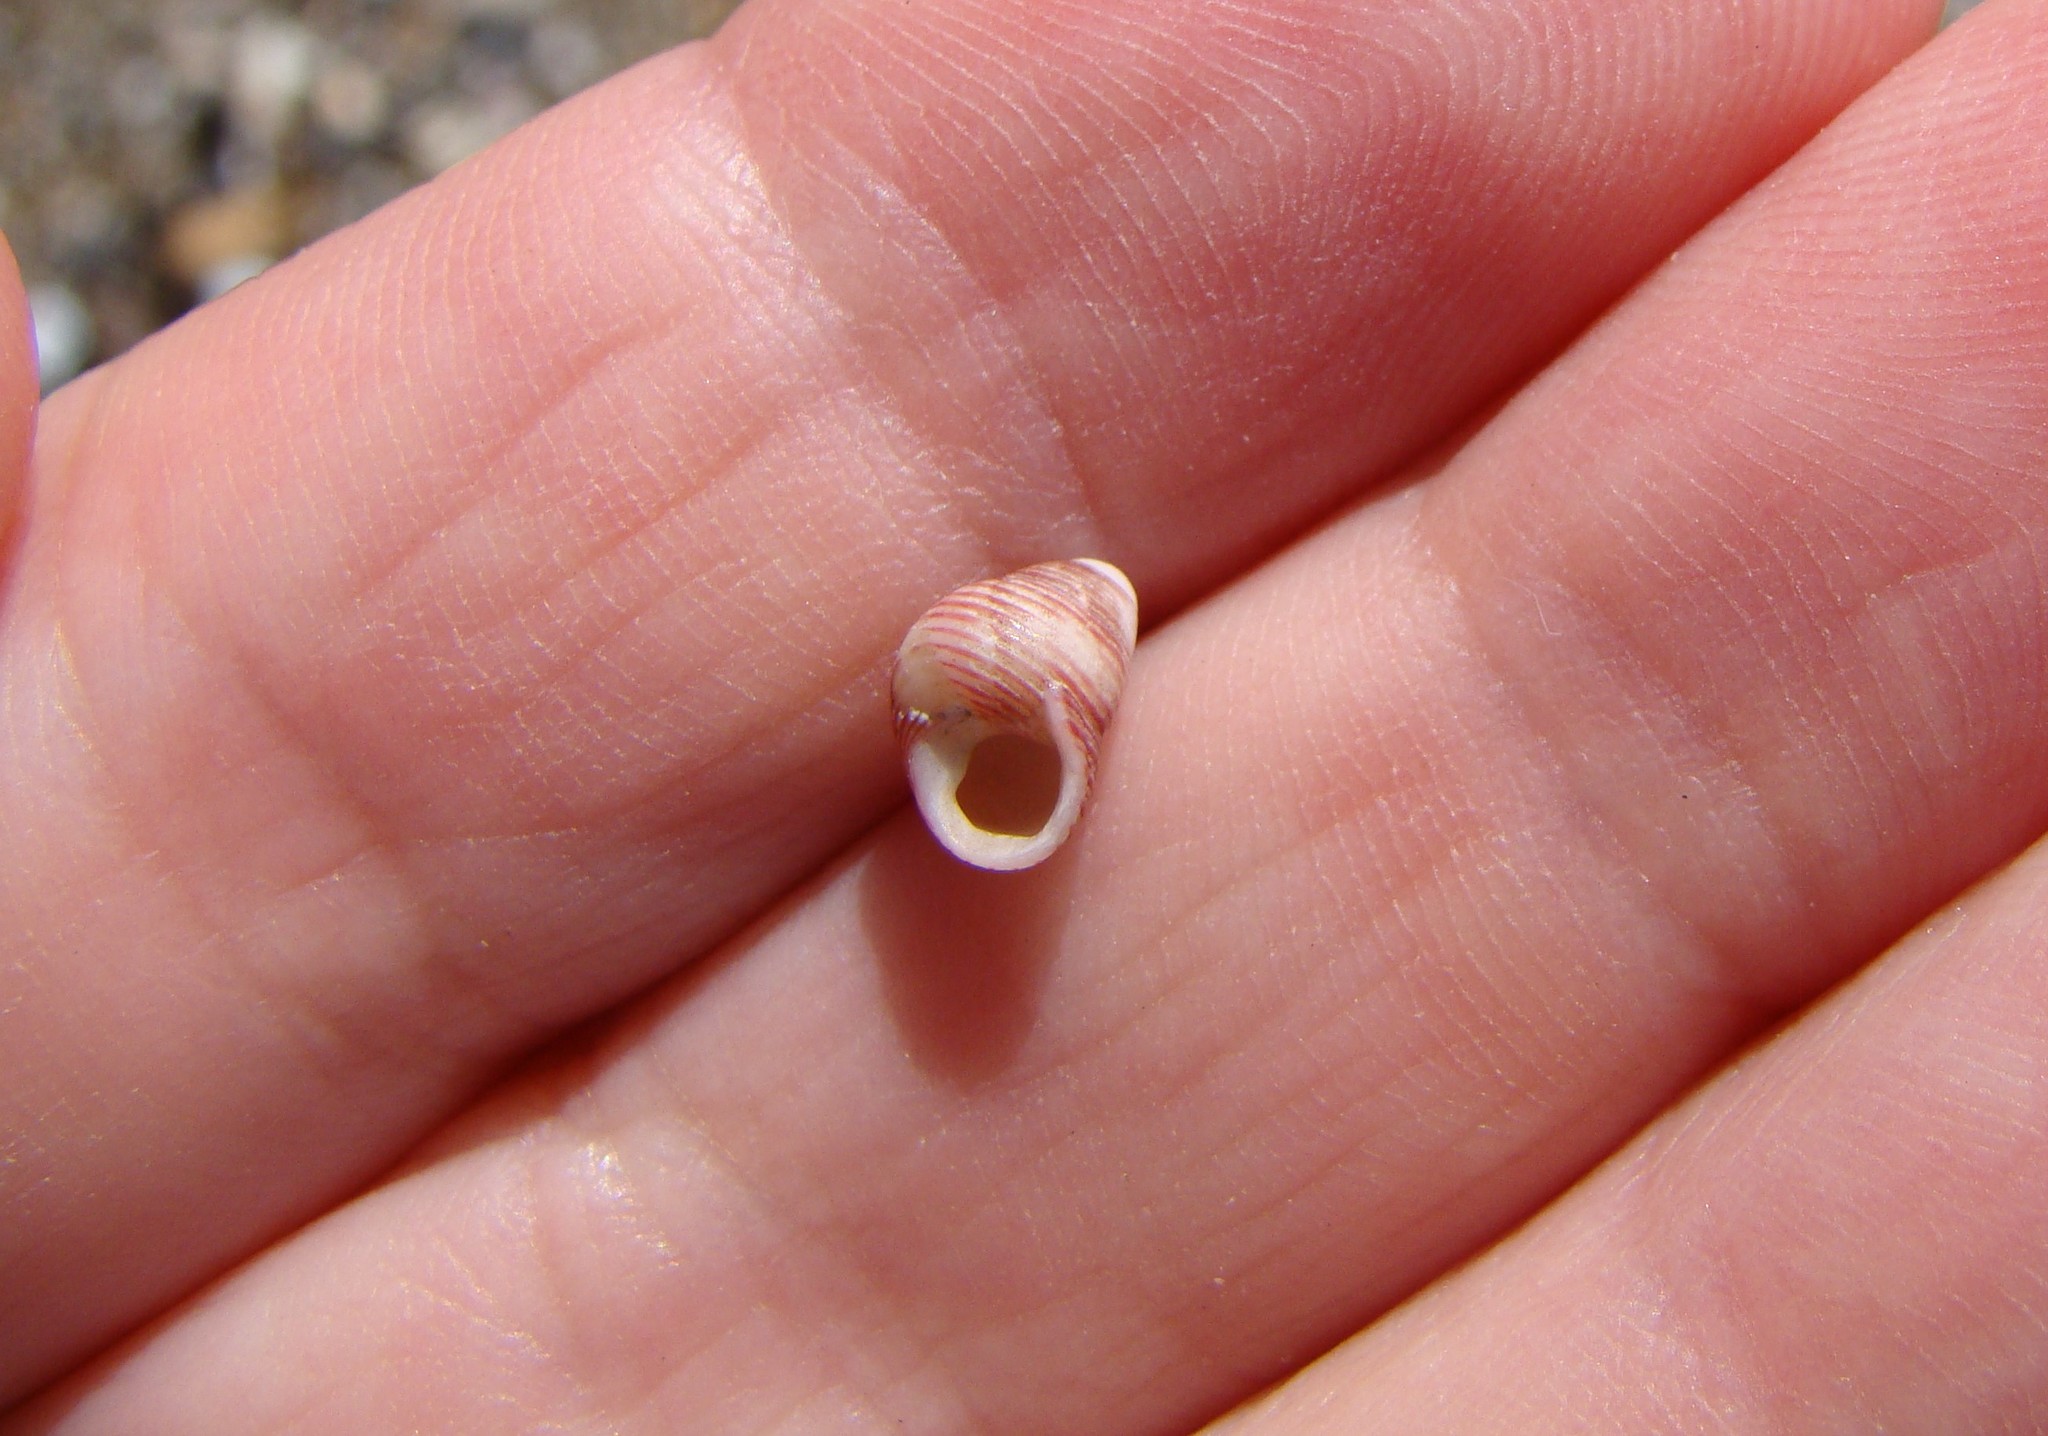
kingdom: Animalia
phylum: Mollusca
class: Gastropoda
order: Trochida
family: Trochidae
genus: Roseaplagis
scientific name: Roseaplagis rufozona
